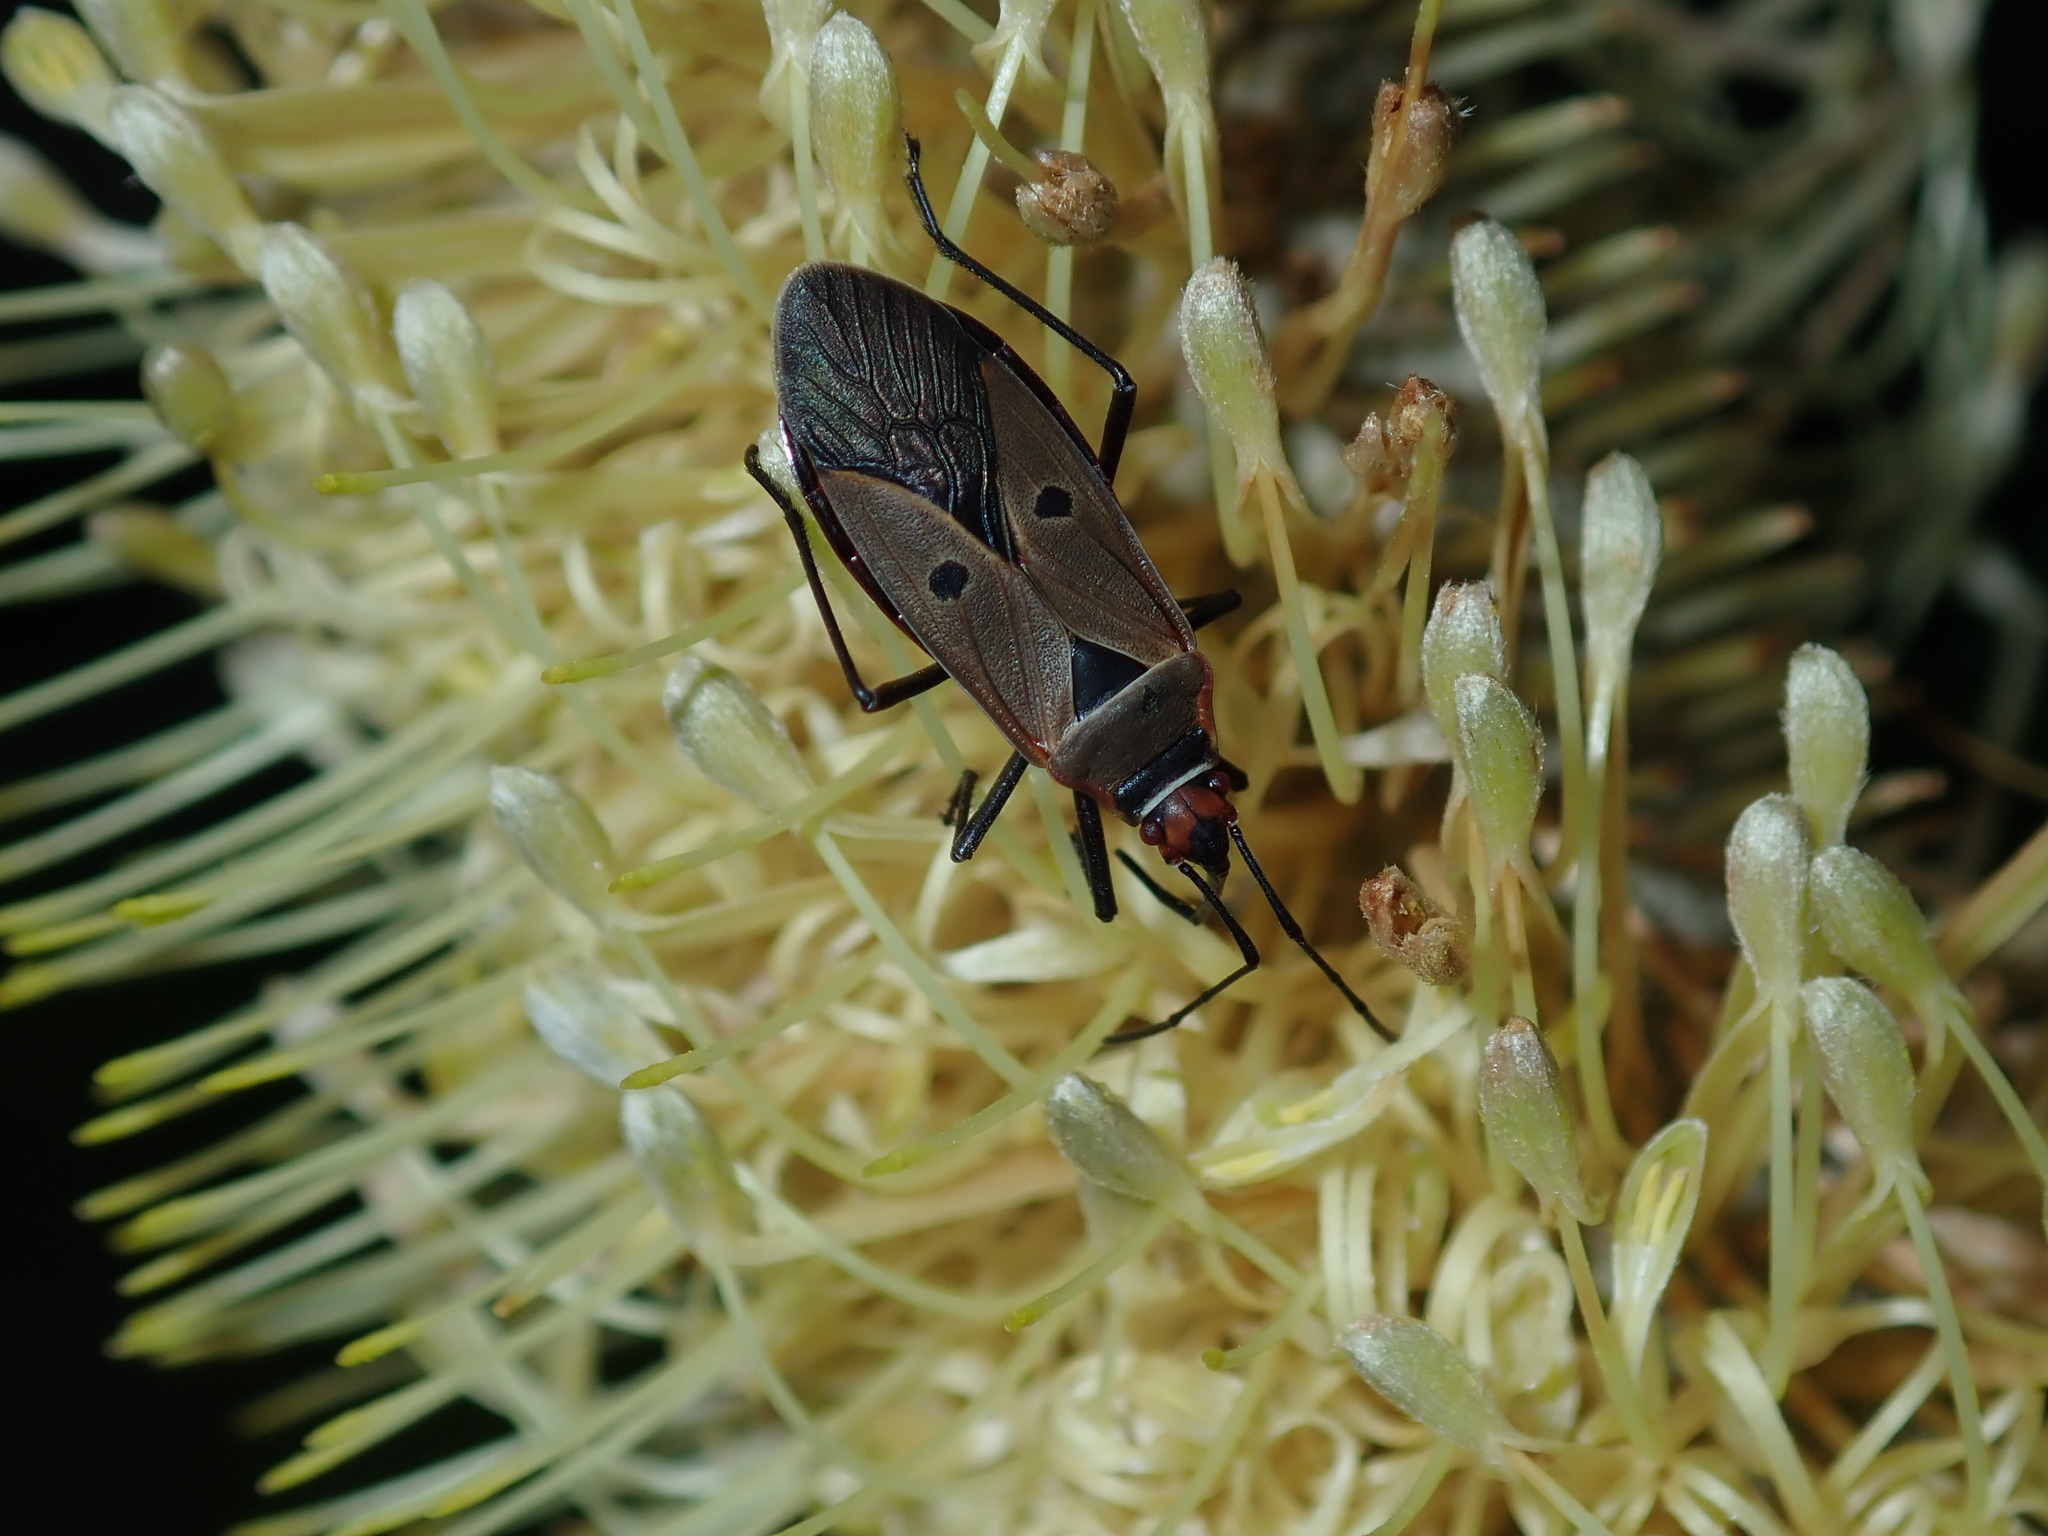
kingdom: Animalia
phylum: Arthropoda
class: Insecta
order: Hemiptera
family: Pyrrhocoridae
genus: Dysdercus
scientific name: Dysdercus sidae
